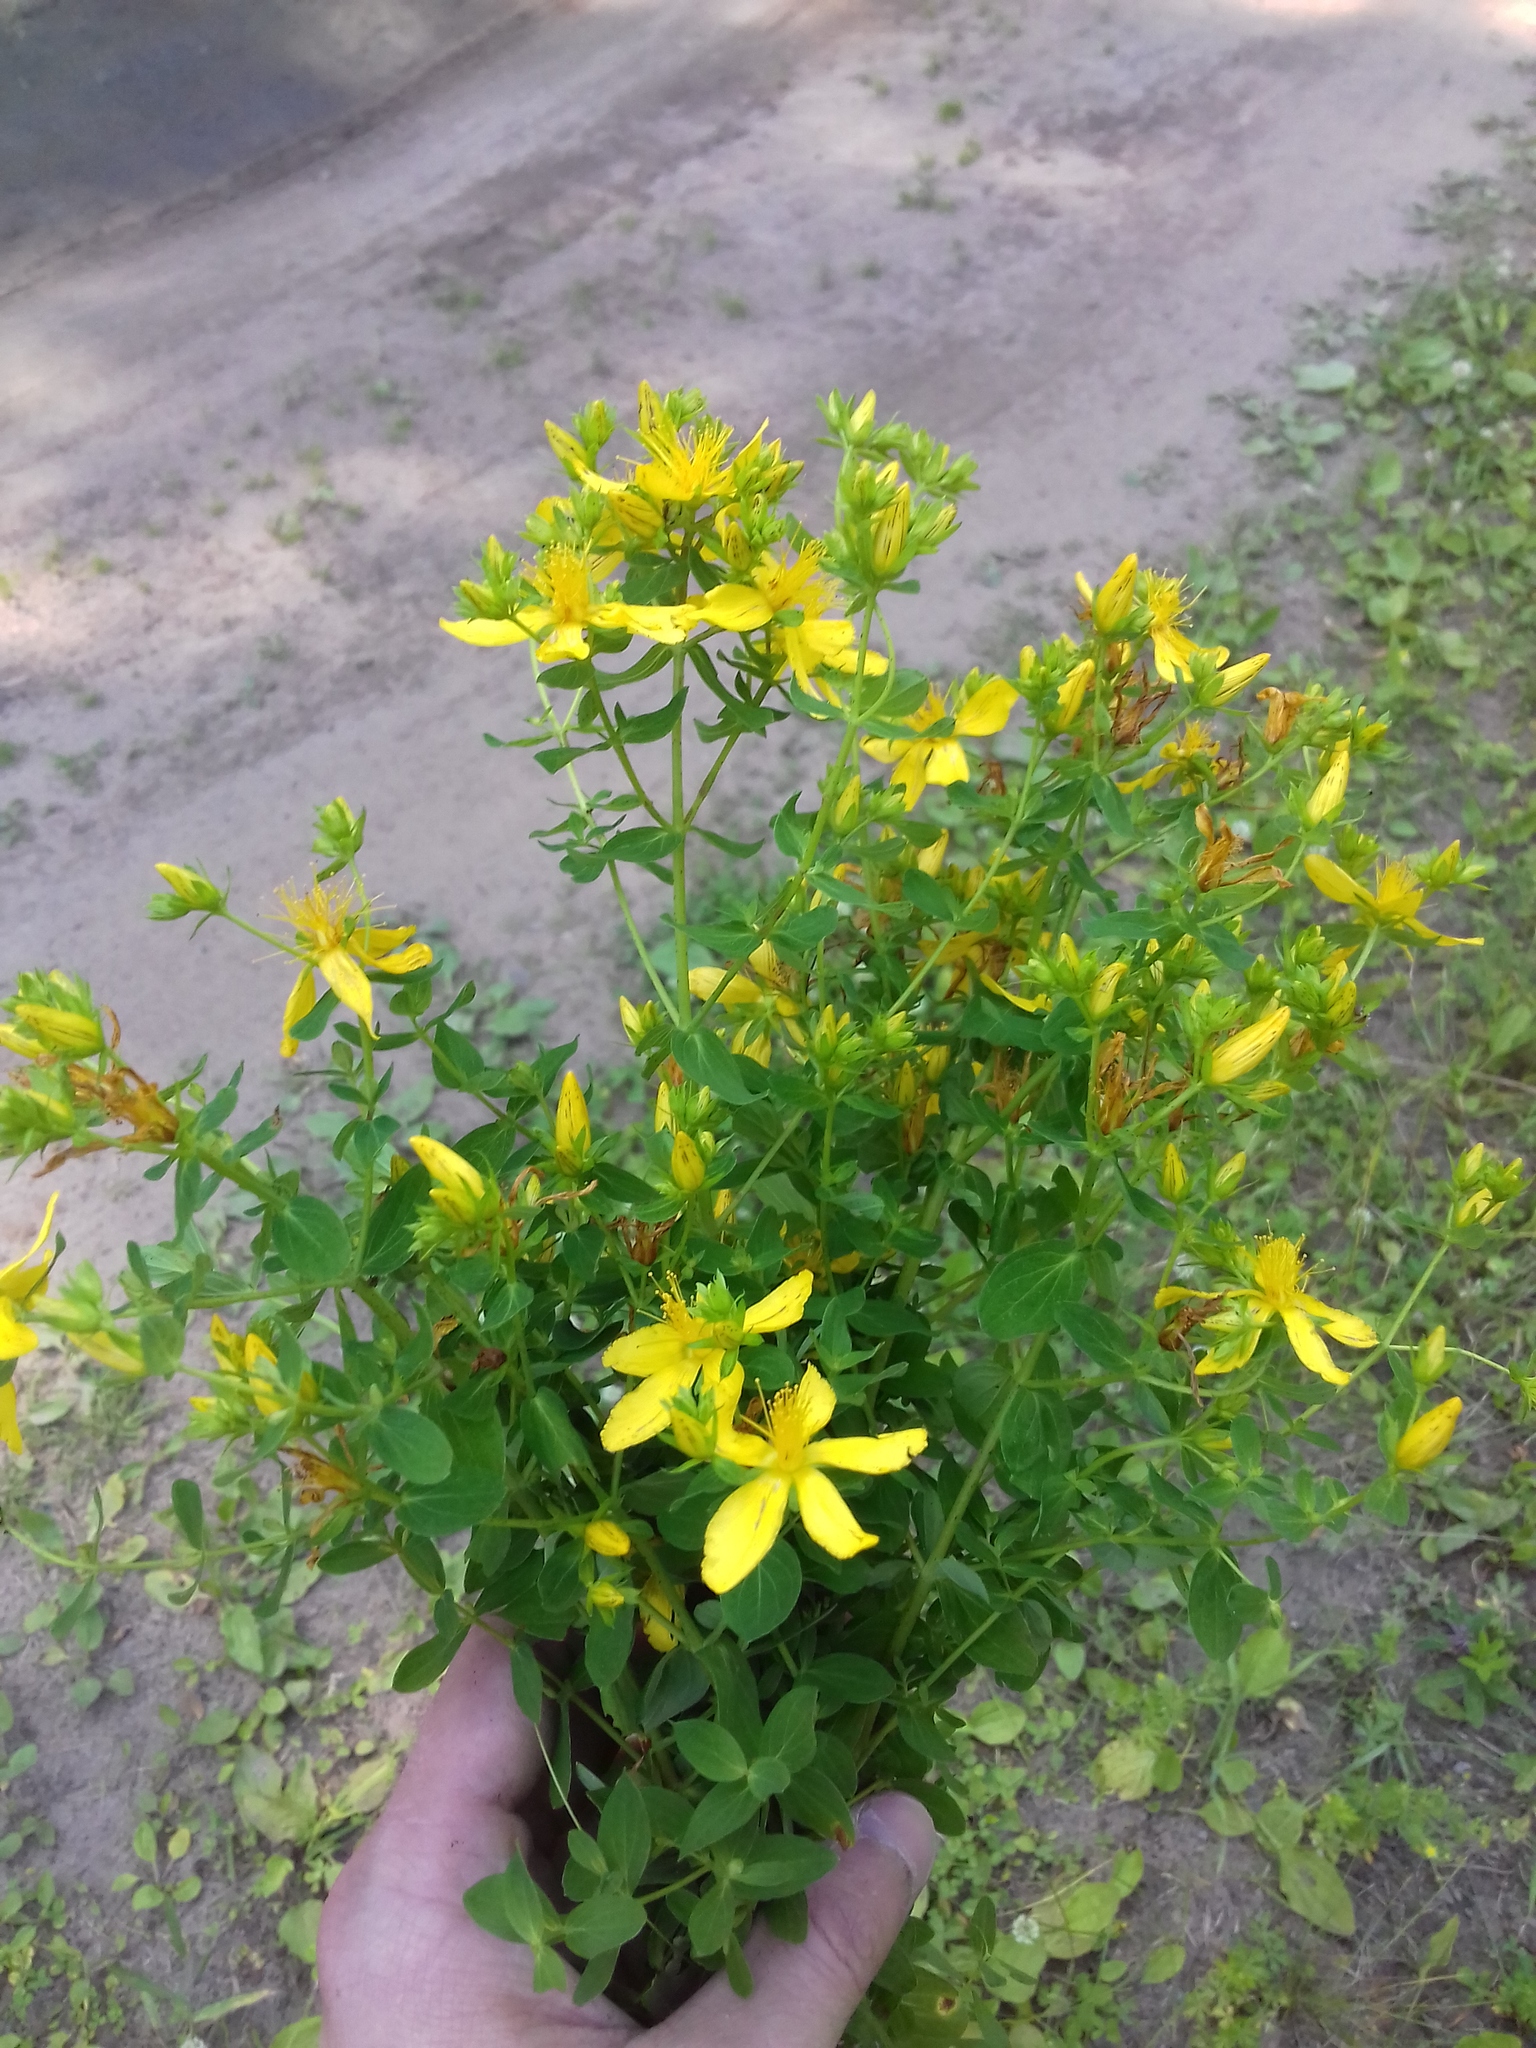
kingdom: Plantae
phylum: Tracheophyta
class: Magnoliopsida
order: Malpighiales
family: Hypericaceae
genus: Hypericum
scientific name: Hypericum perforatum
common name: Common st. johnswort
